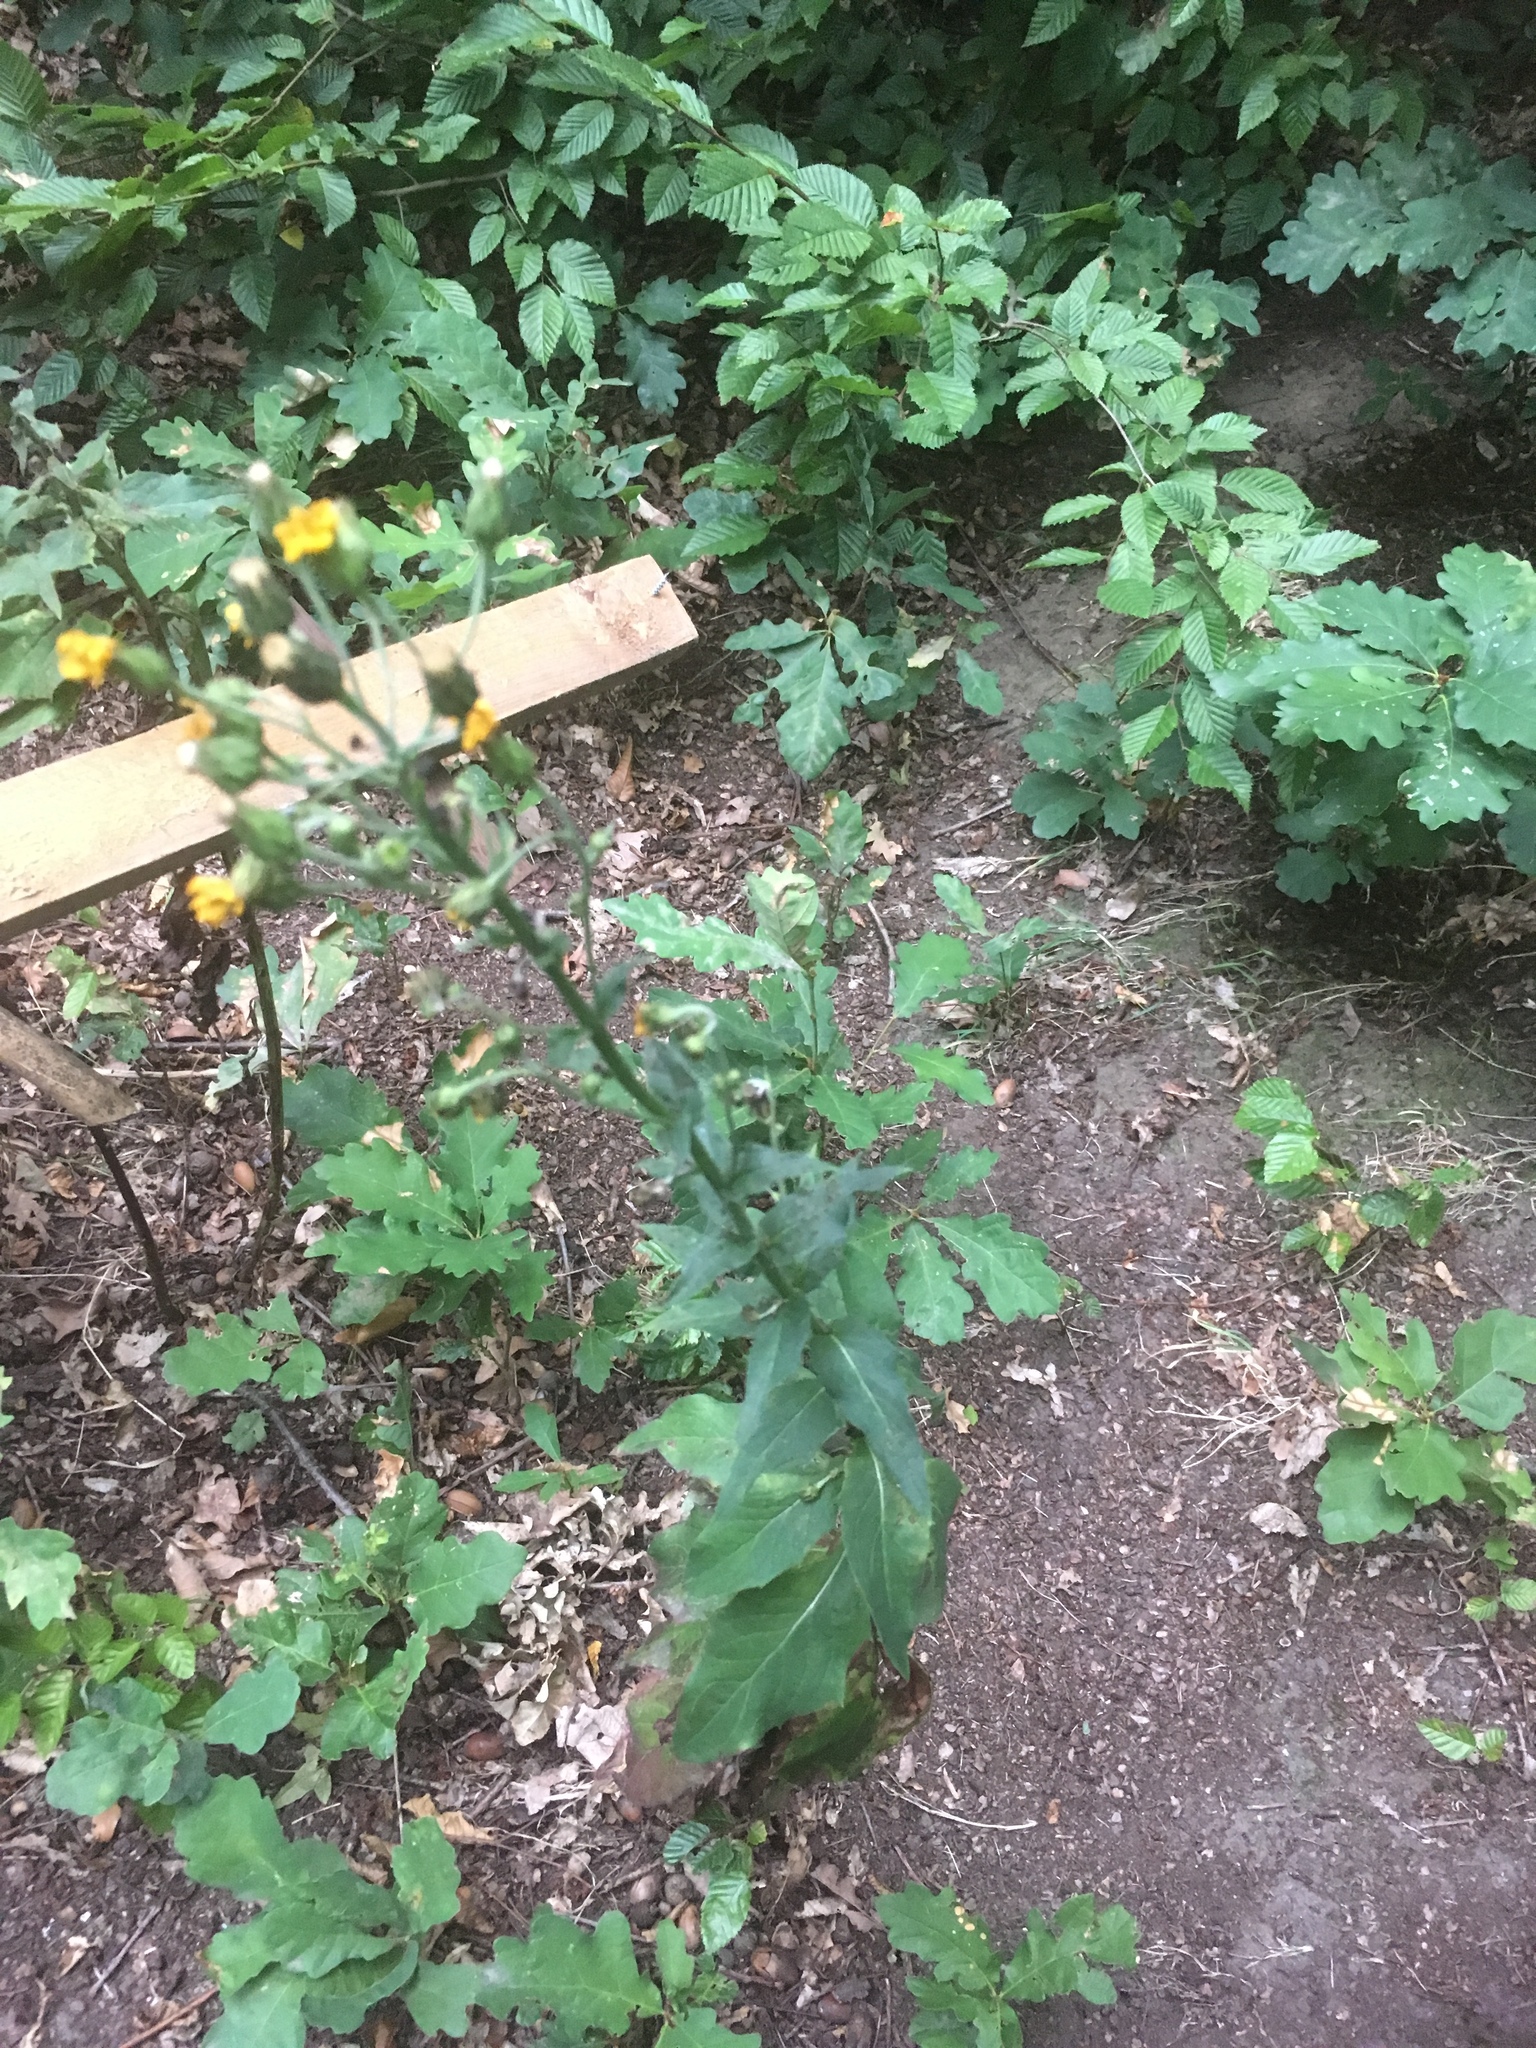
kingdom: Plantae
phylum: Tracheophyta
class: Magnoliopsida
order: Asterales
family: Asteraceae
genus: Sonchus
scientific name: Sonchus arvensis
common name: Perennial sow-thistle
